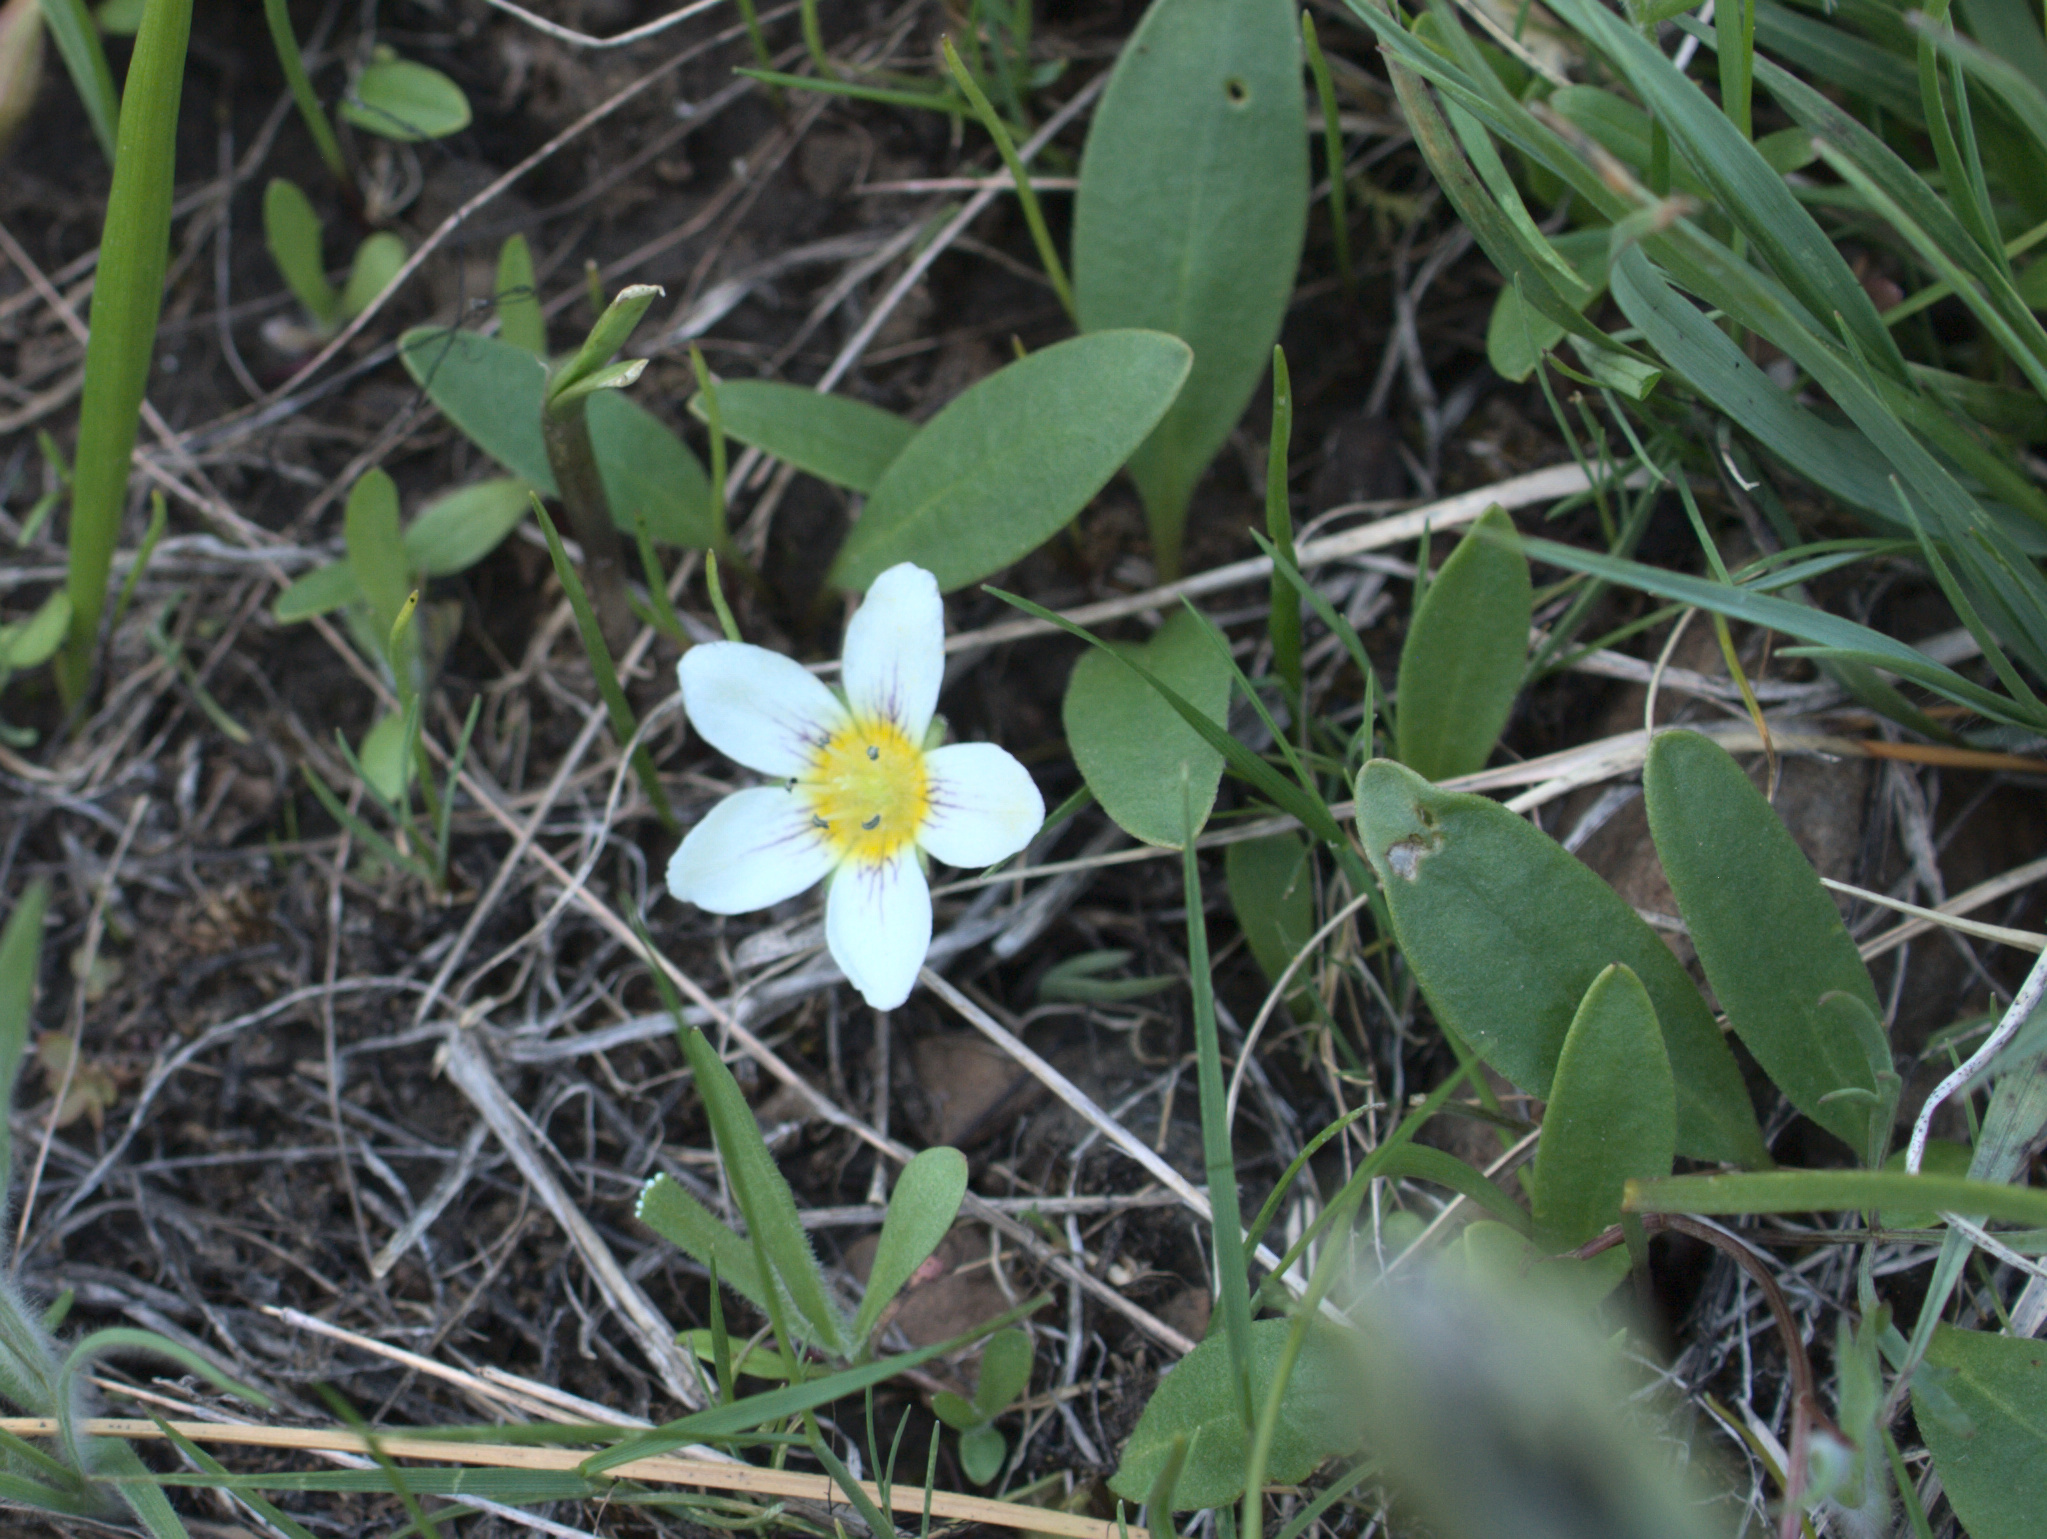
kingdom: Plantae
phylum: Tracheophyta
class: Magnoliopsida
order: Boraginales
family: Hydrophyllaceae
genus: Hesperochiron
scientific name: Hesperochiron pumilus
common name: Dwarf hesperochiron
